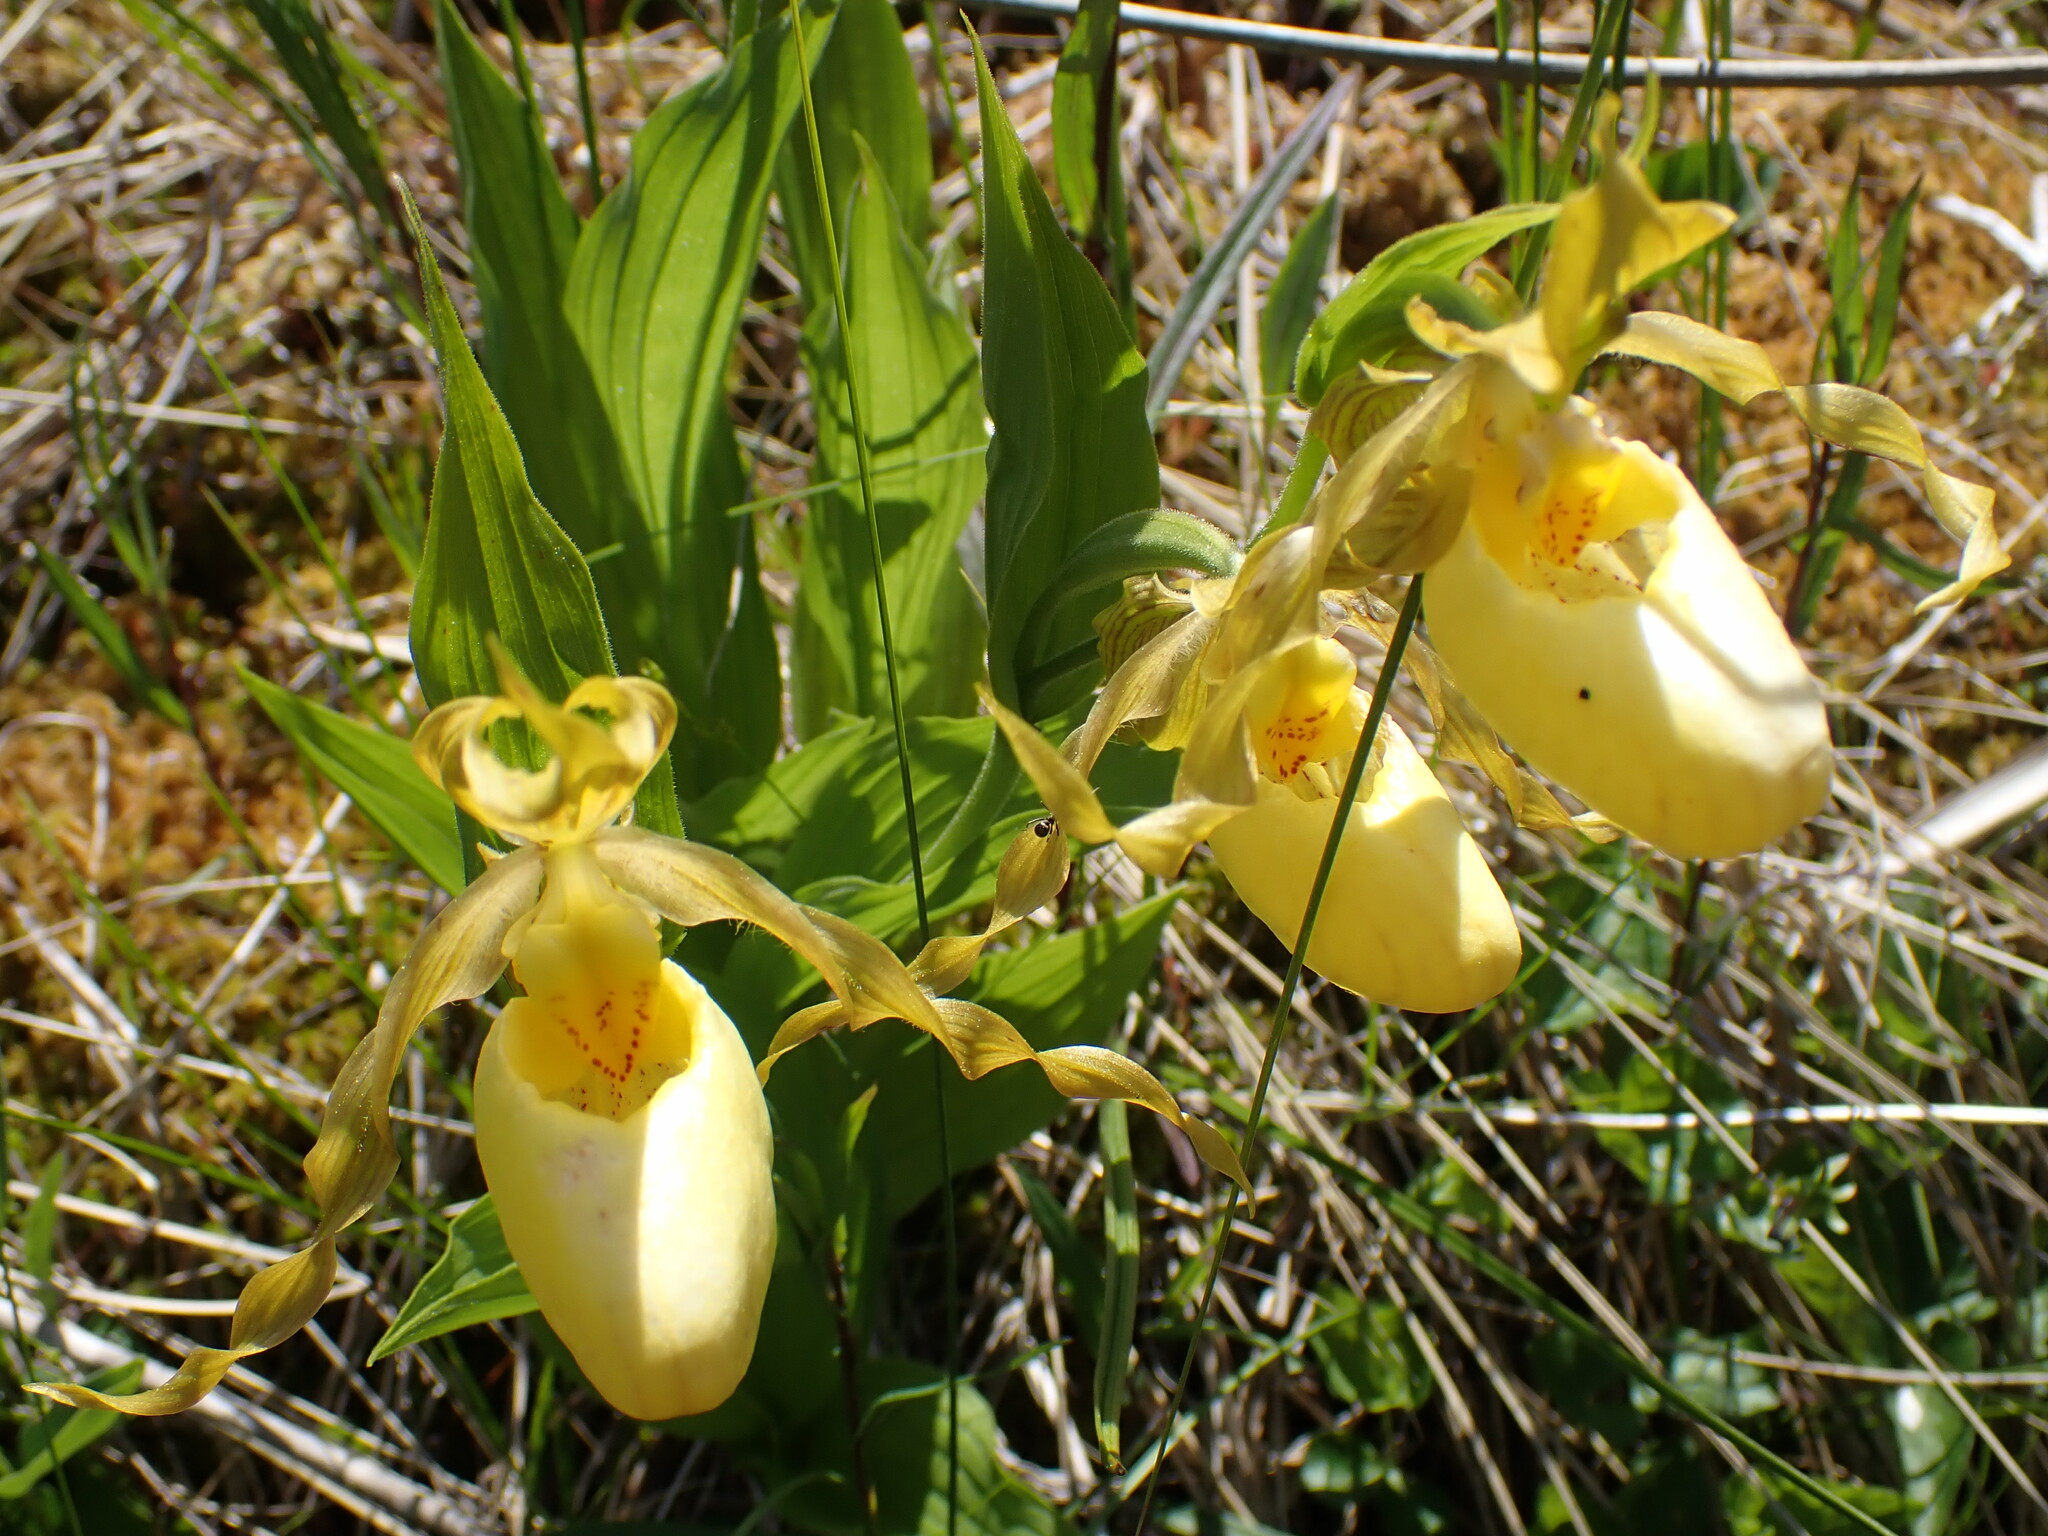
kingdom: Plantae
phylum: Tracheophyta
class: Liliopsida
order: Asparagales
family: Orchidaceae
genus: Cypripedium
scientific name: Cypripedium parviflorum
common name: American yellow lady's-slipper
